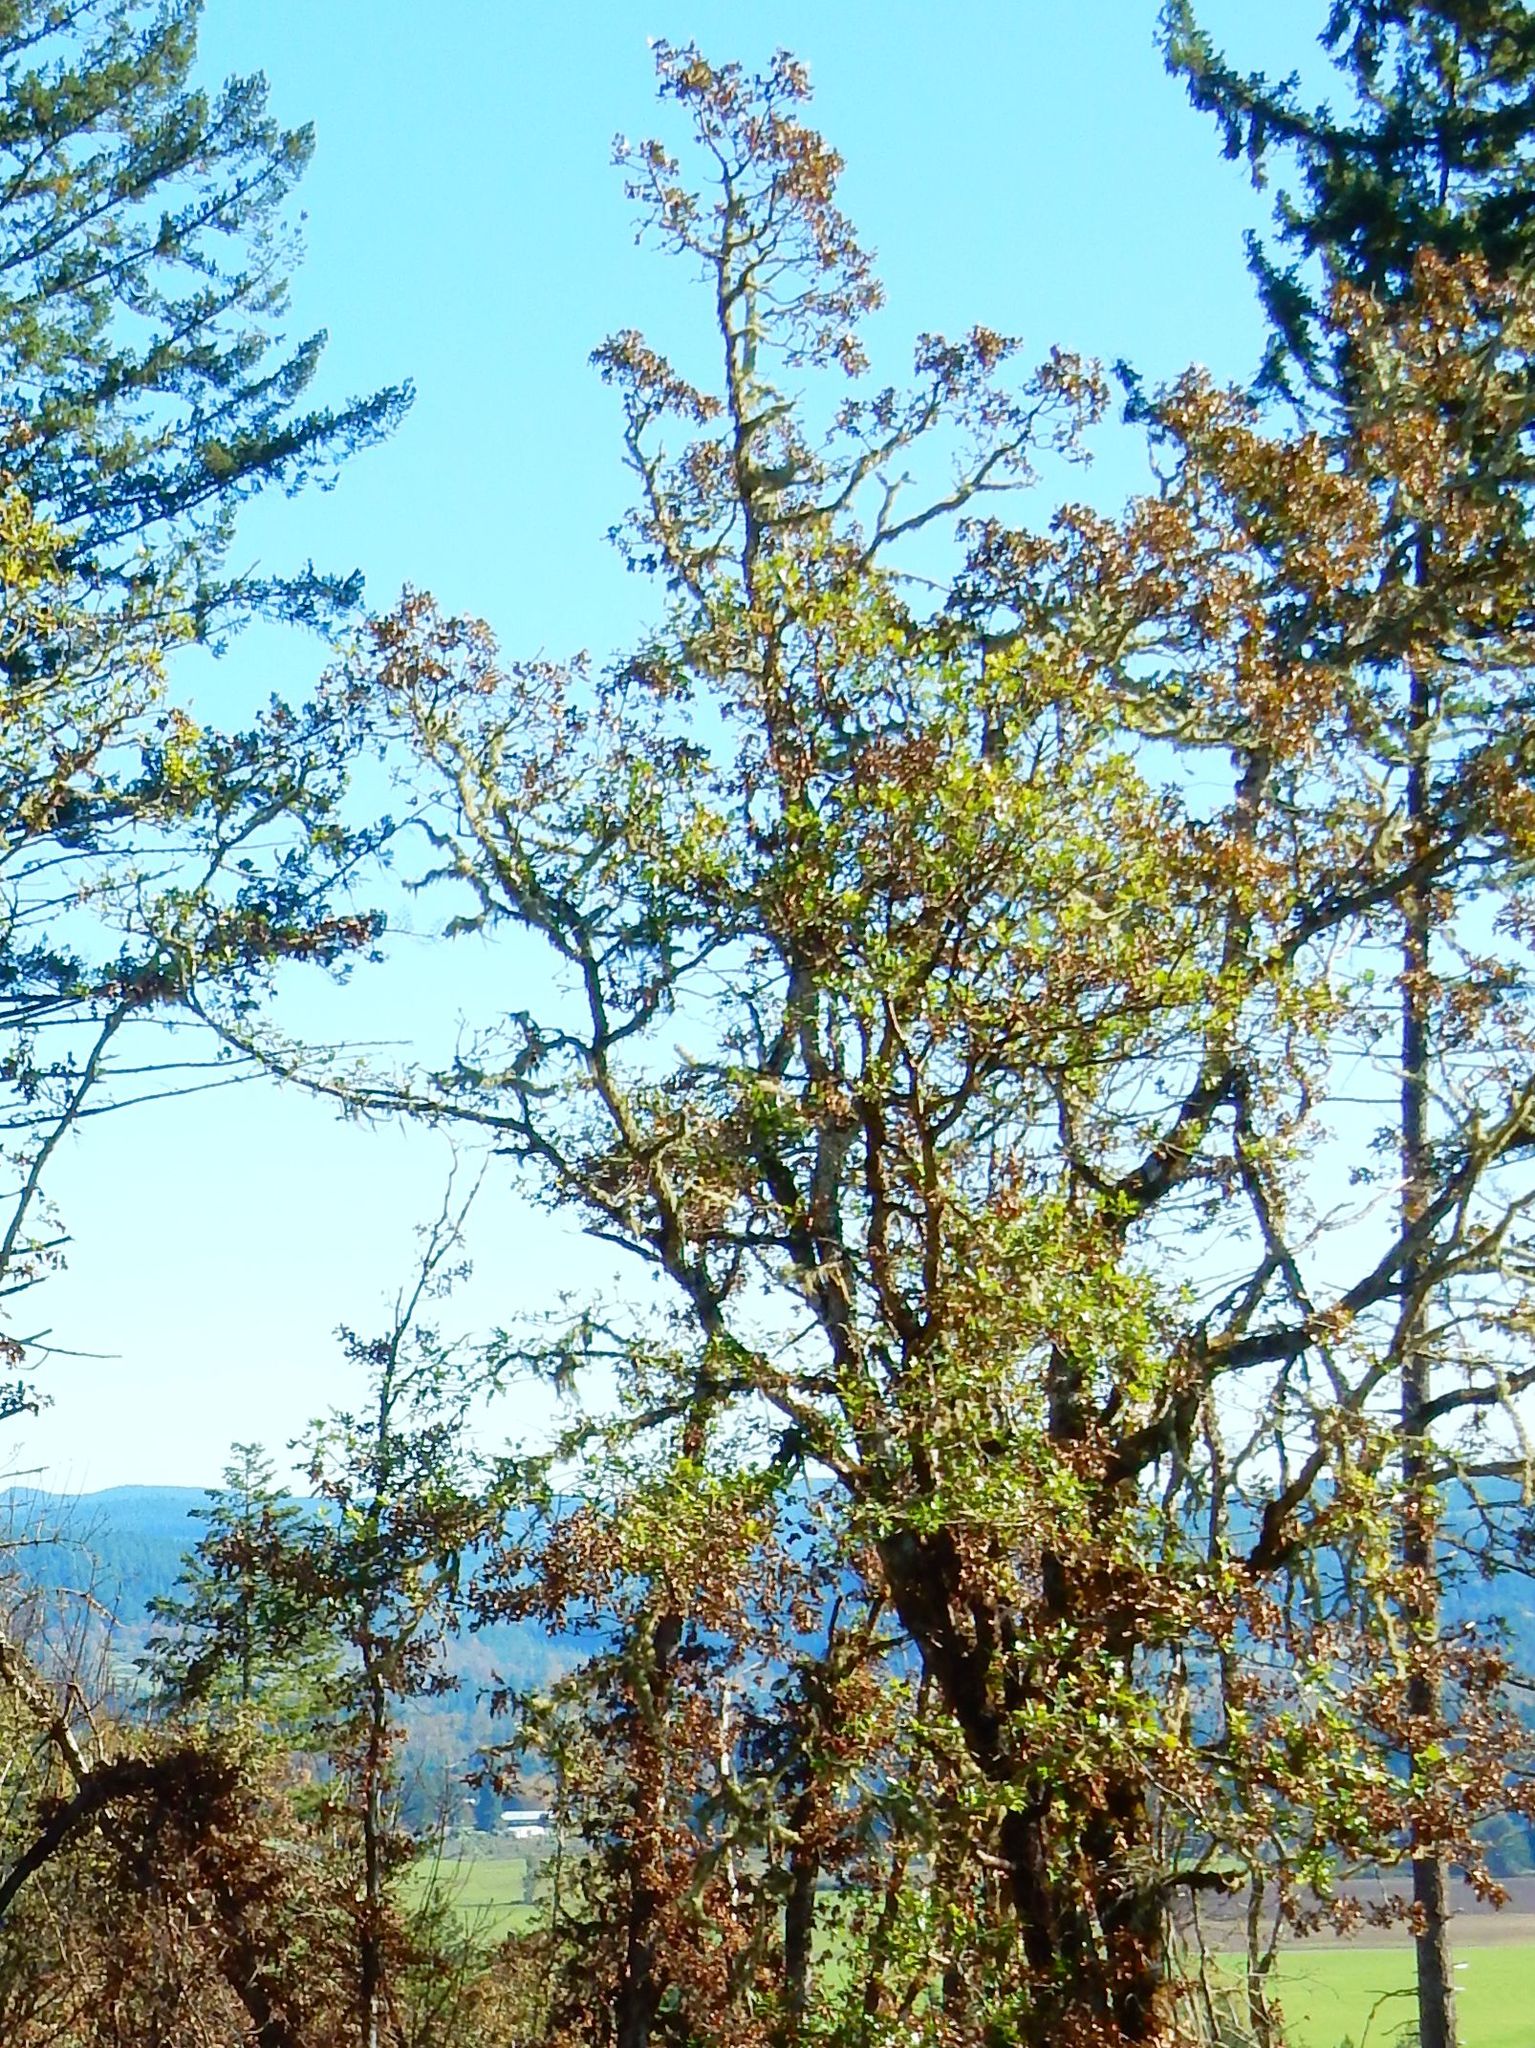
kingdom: Plantae
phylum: Tracheophyta
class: Magnoliopsida
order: Fagales
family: Fagaceae
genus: Quercus
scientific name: Quercus garryana
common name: Garry oak
